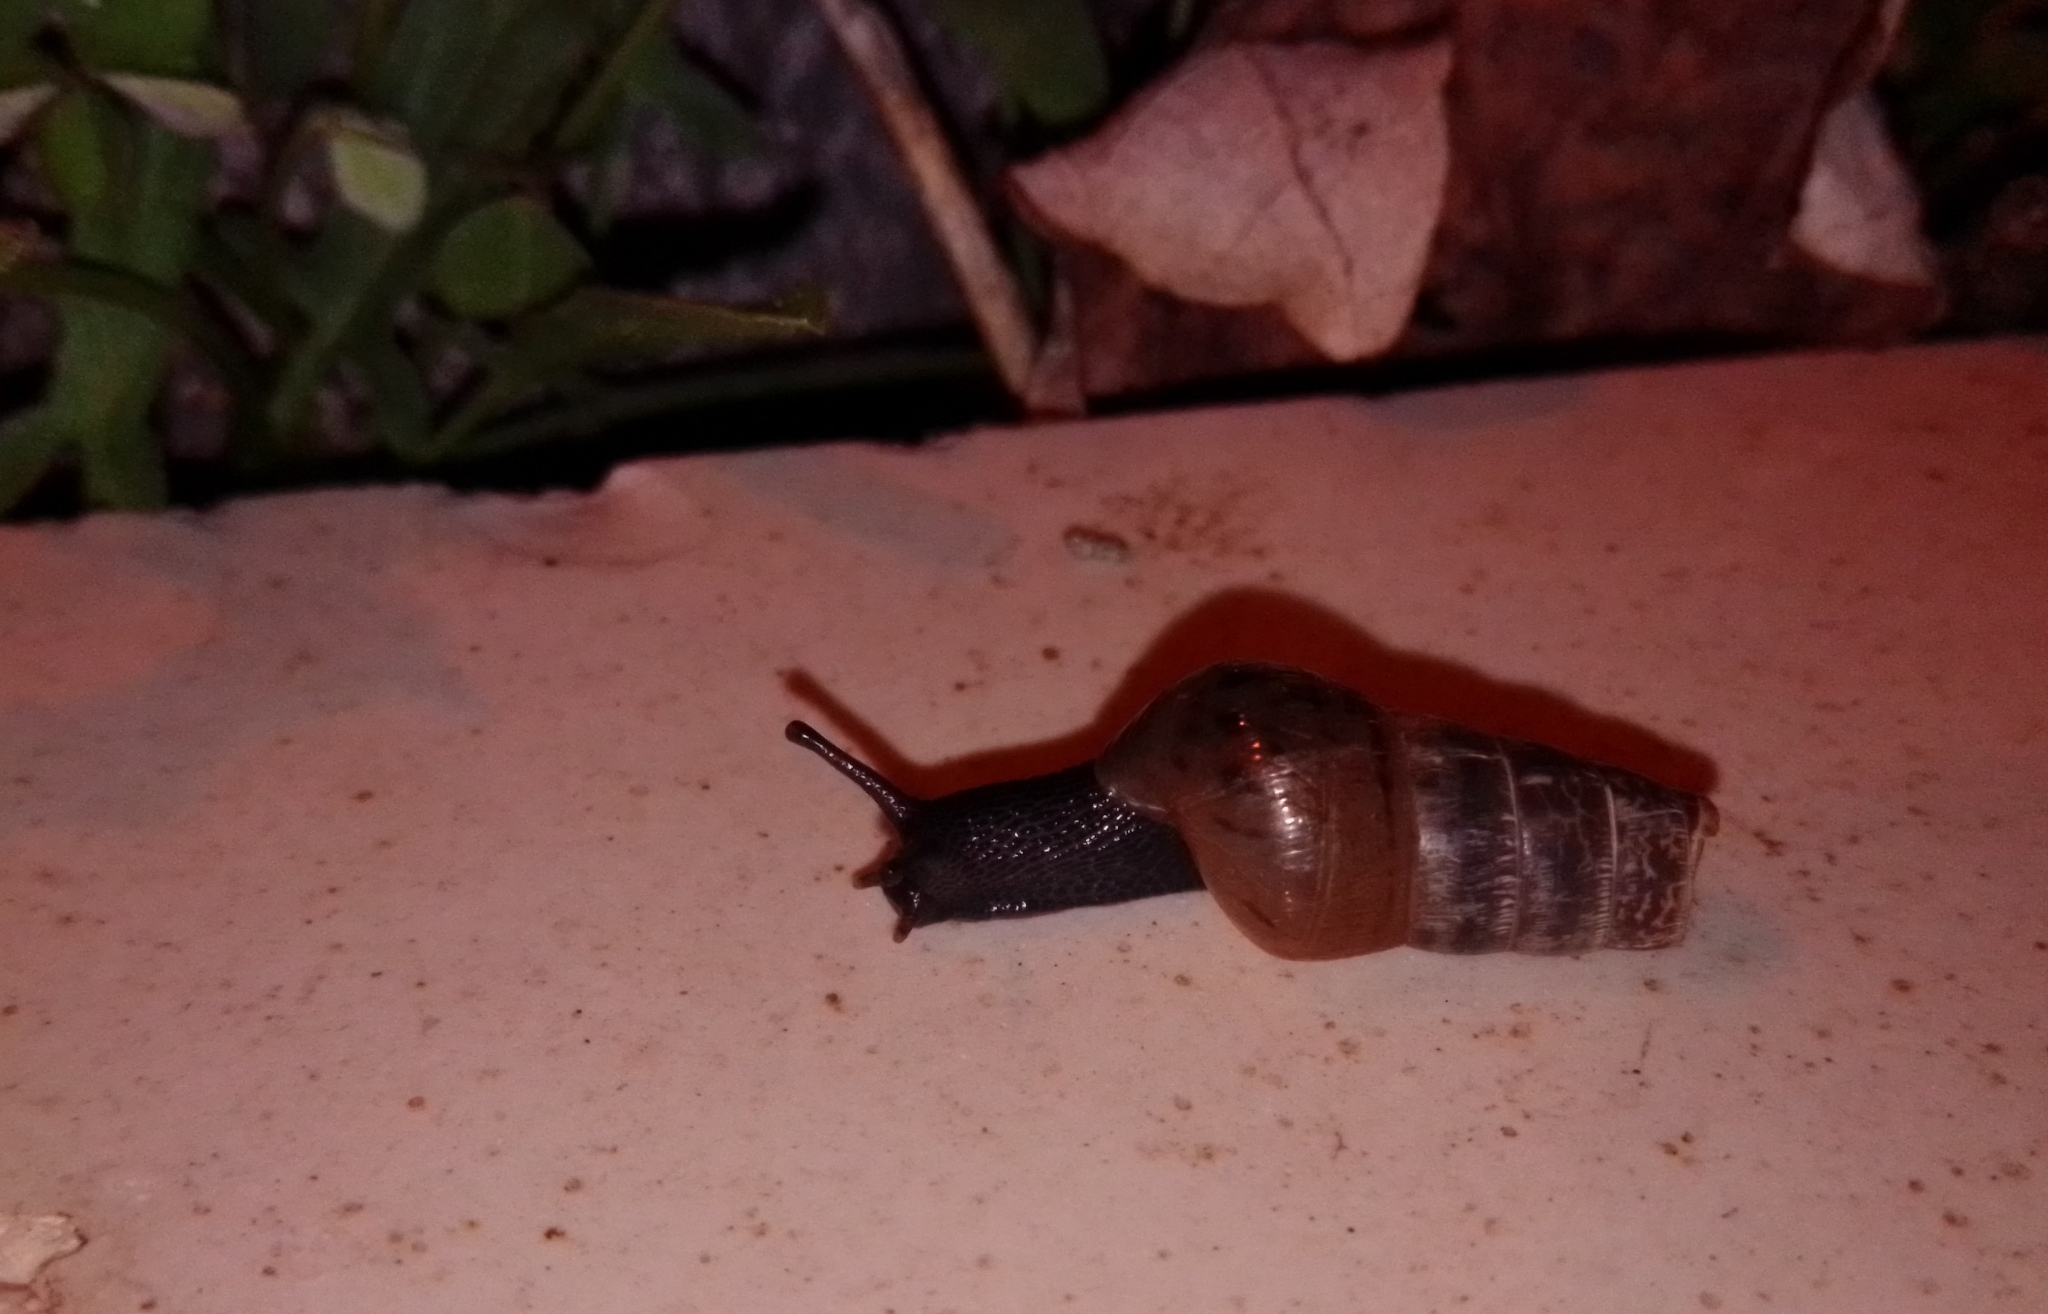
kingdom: Animalia
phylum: Mollusca
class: Gastropoda
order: Stylommatophora
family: Achatinidae
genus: Rumina
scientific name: Rumina decollata
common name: Decollate snail
